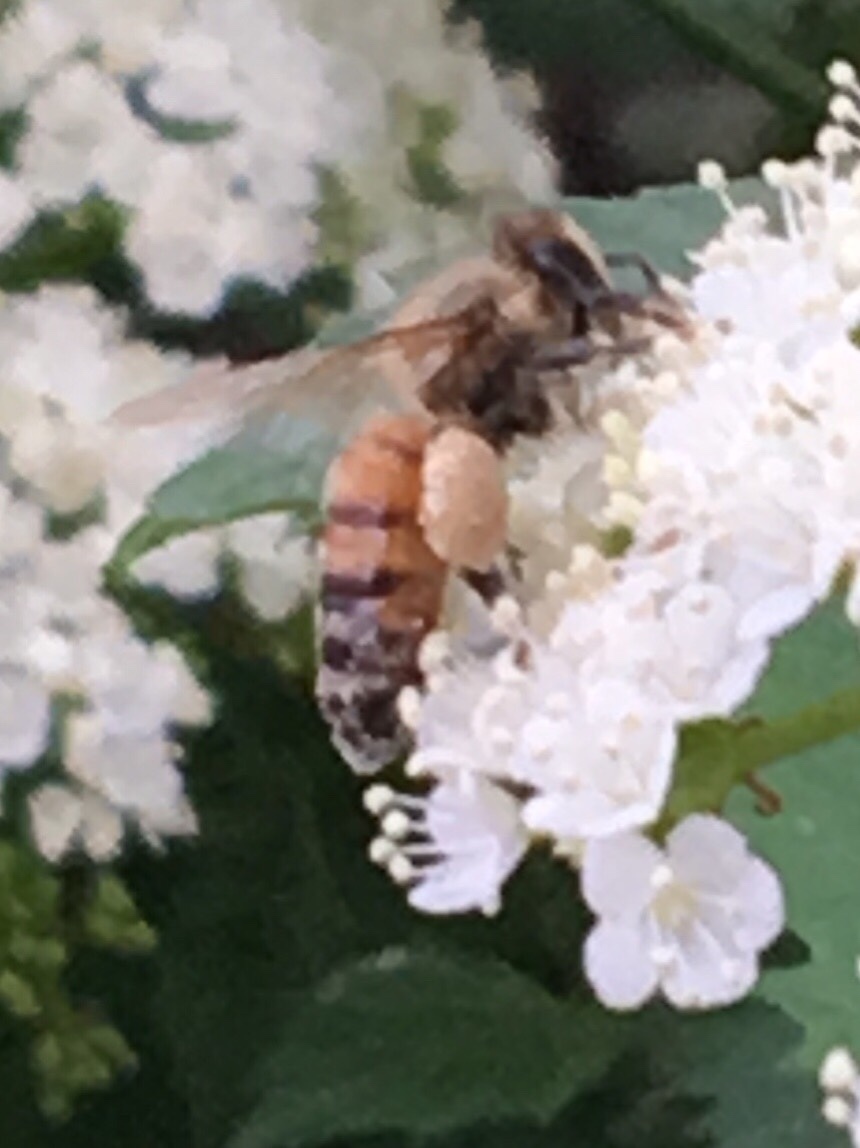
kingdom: Animalia
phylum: Arthropoda
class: Insecta
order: Hymenoptera
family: Apidae
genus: Apis
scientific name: Apis mellifera
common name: Honey bee
